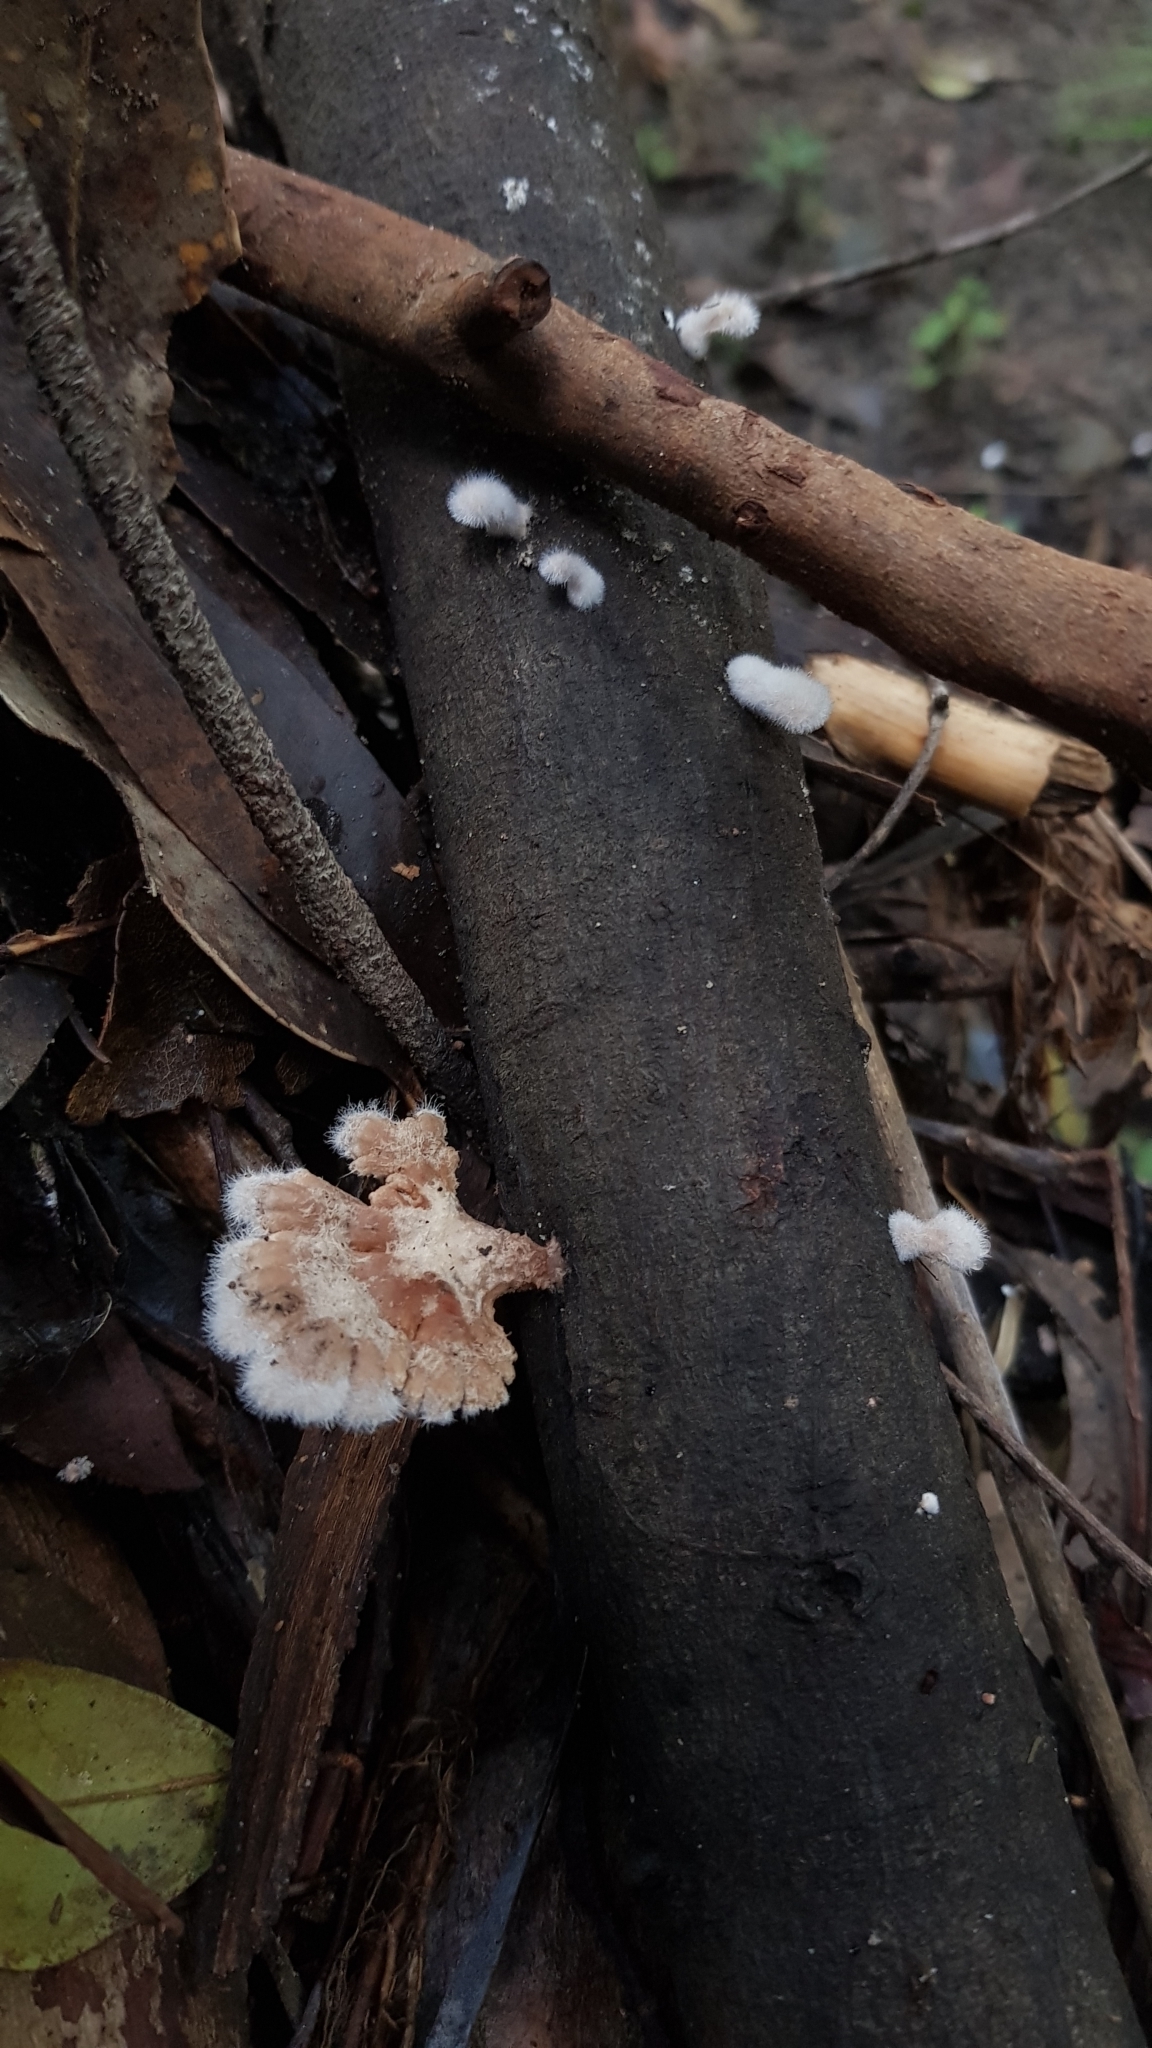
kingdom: Fungi
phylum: Basidiomycota
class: Agaricomycetes
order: Agaricales
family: Schizophyllaceae
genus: Schizophyllum
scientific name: Schizophyllum commune
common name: Common porecrust
